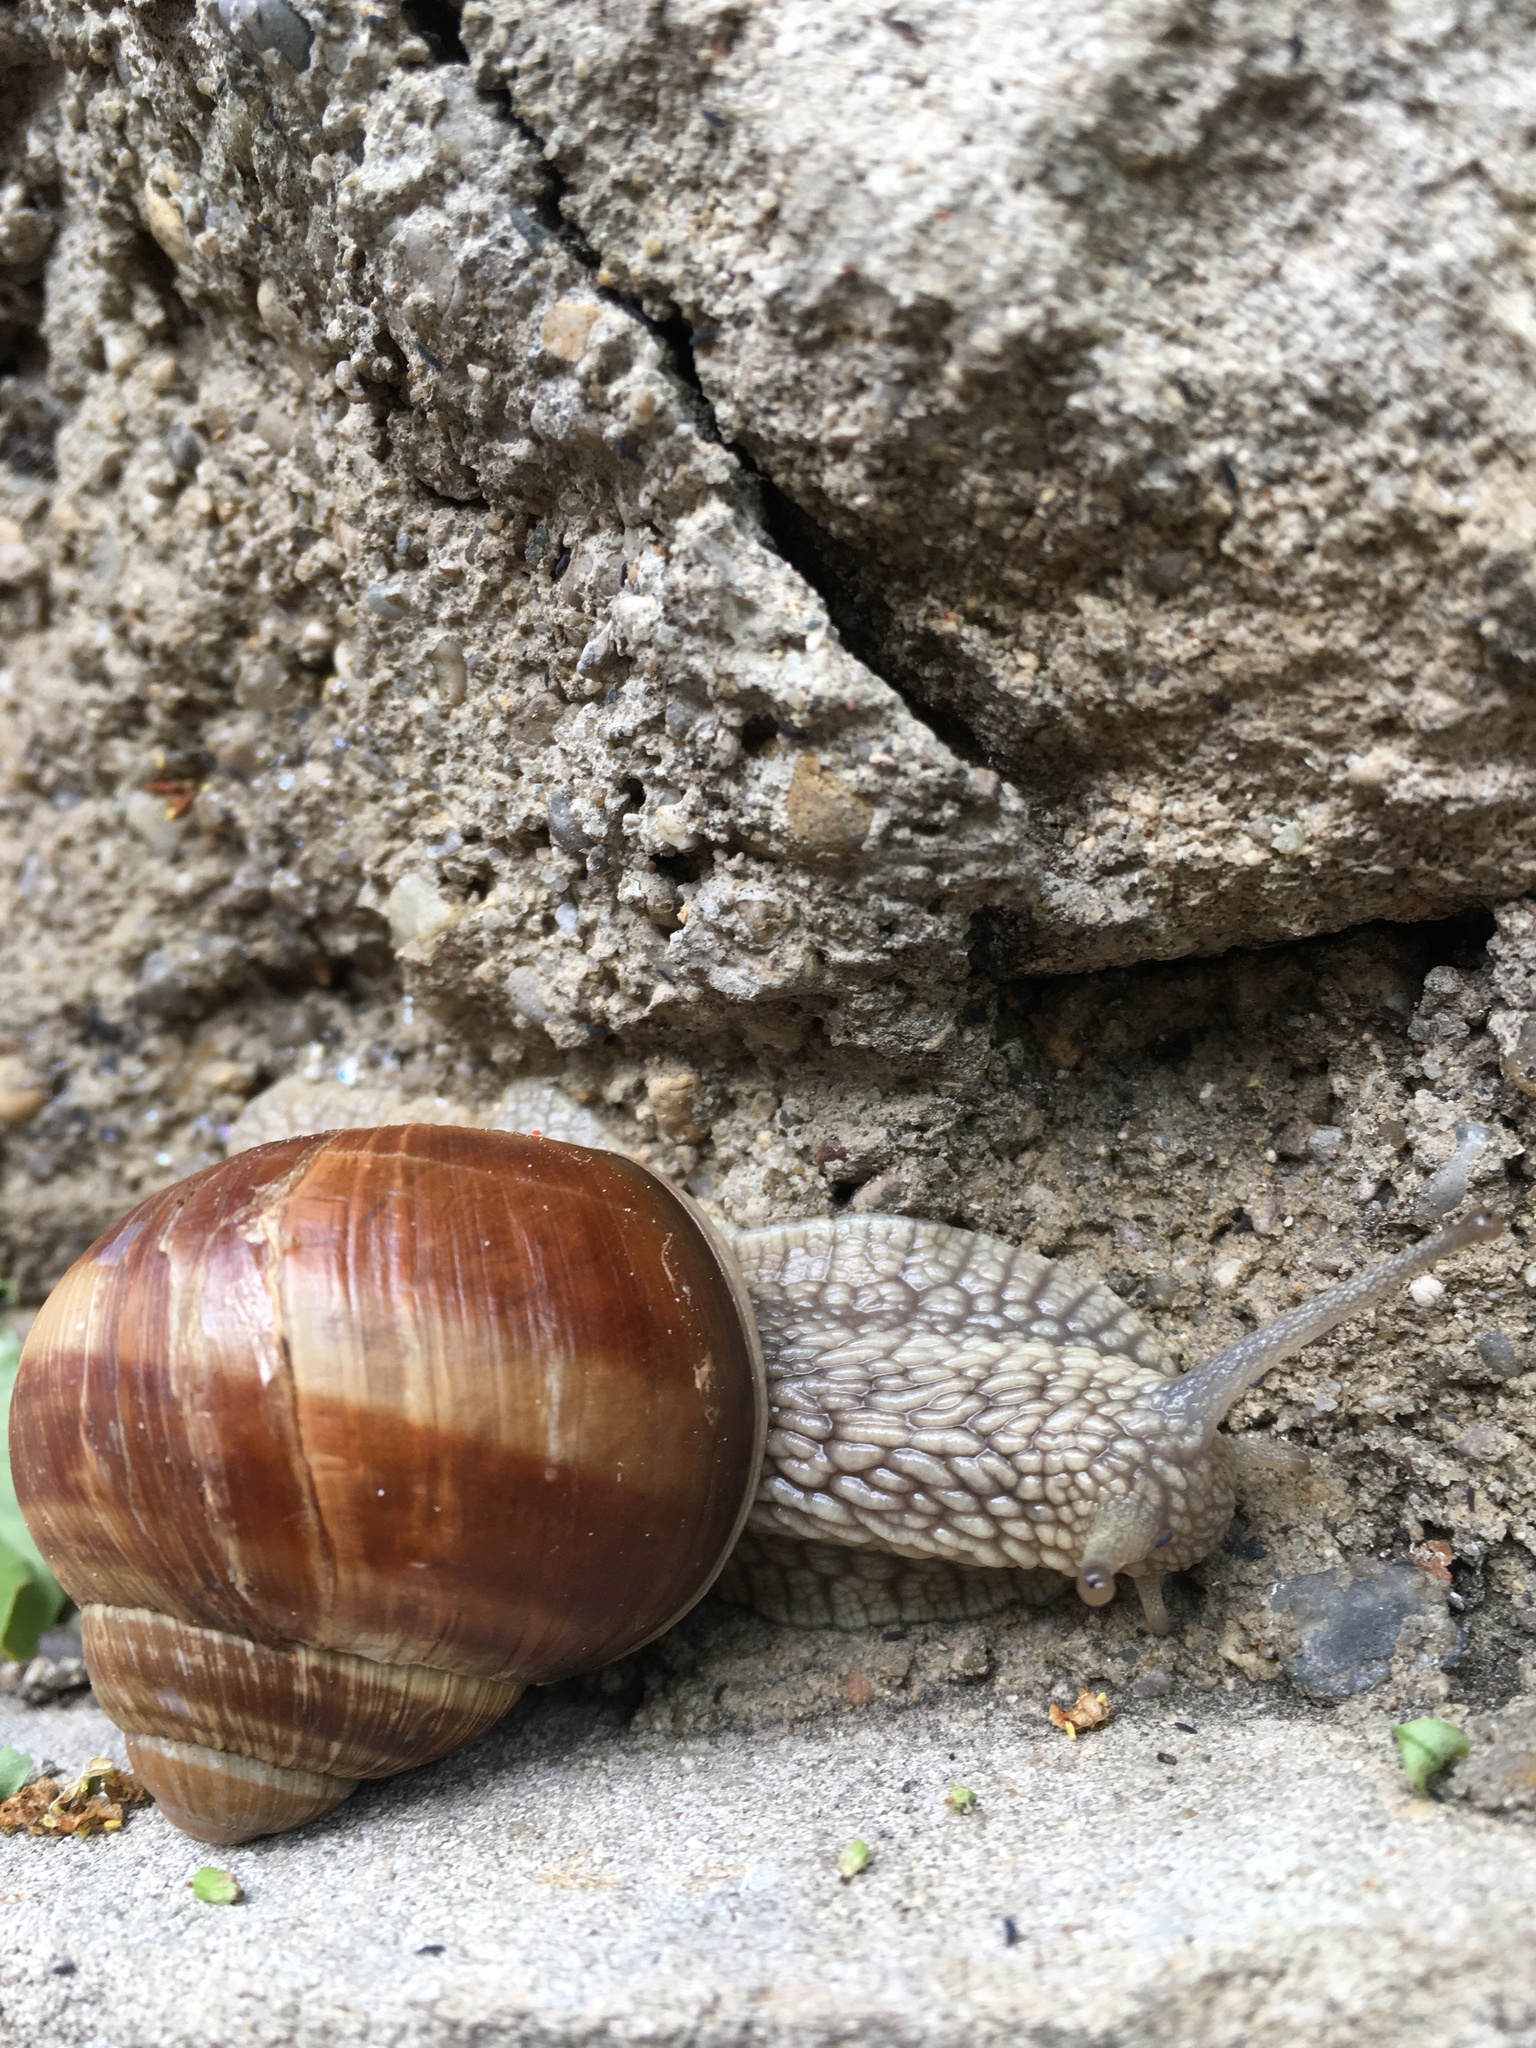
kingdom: Animalia
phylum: Mollusca
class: Gastropoda
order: Stylommatophora
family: Helicidae
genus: Helix
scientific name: Helix pomatia
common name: Roman snail
